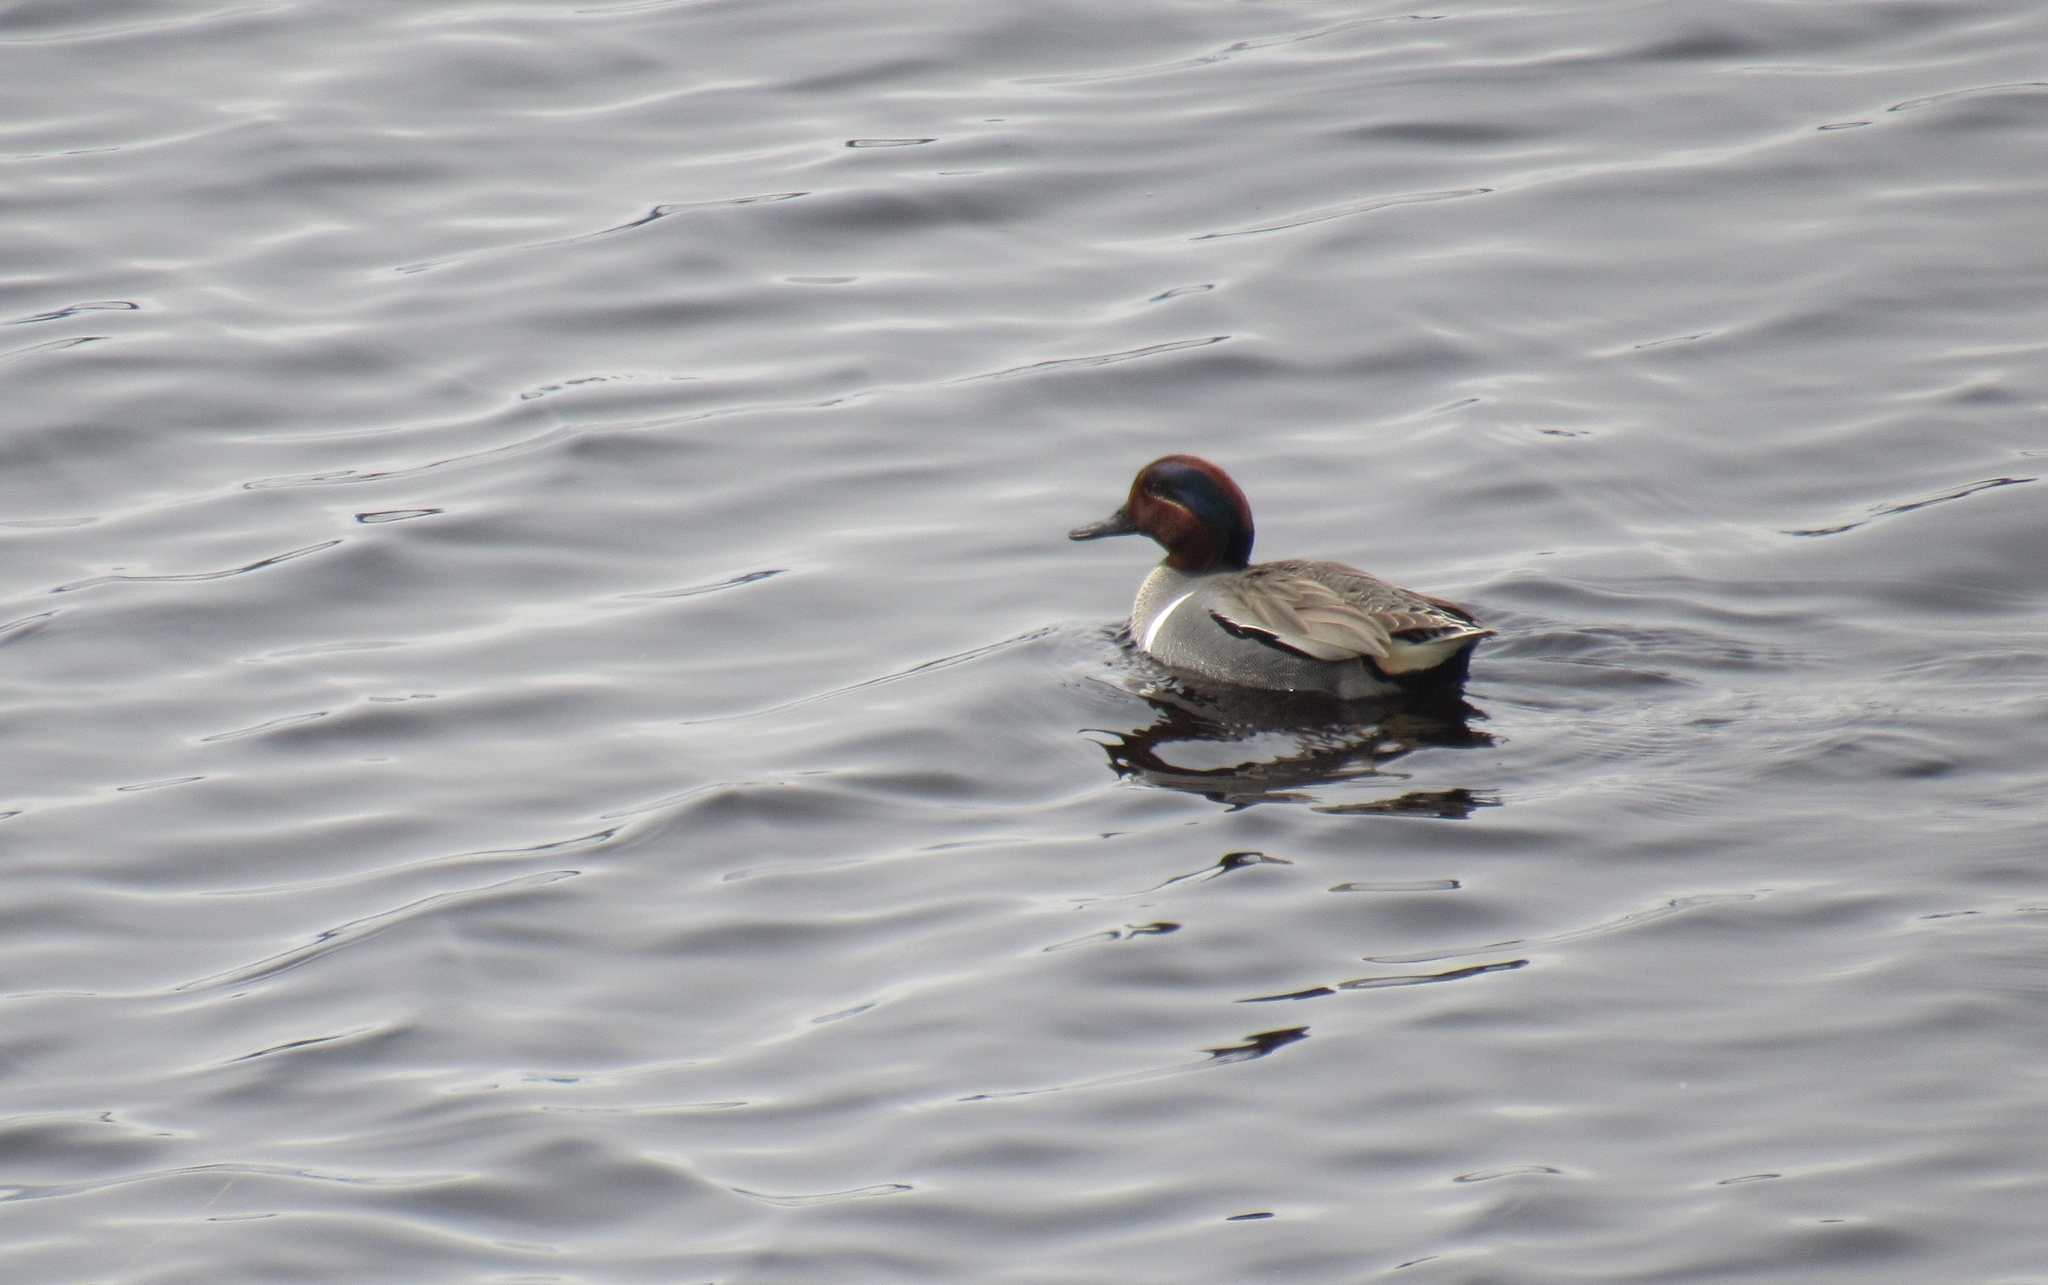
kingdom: Animalia
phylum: Chordata
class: Aves
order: Anseriformes
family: Anatidae
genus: Anas
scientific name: Anas crecca
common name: Eurasian teal
